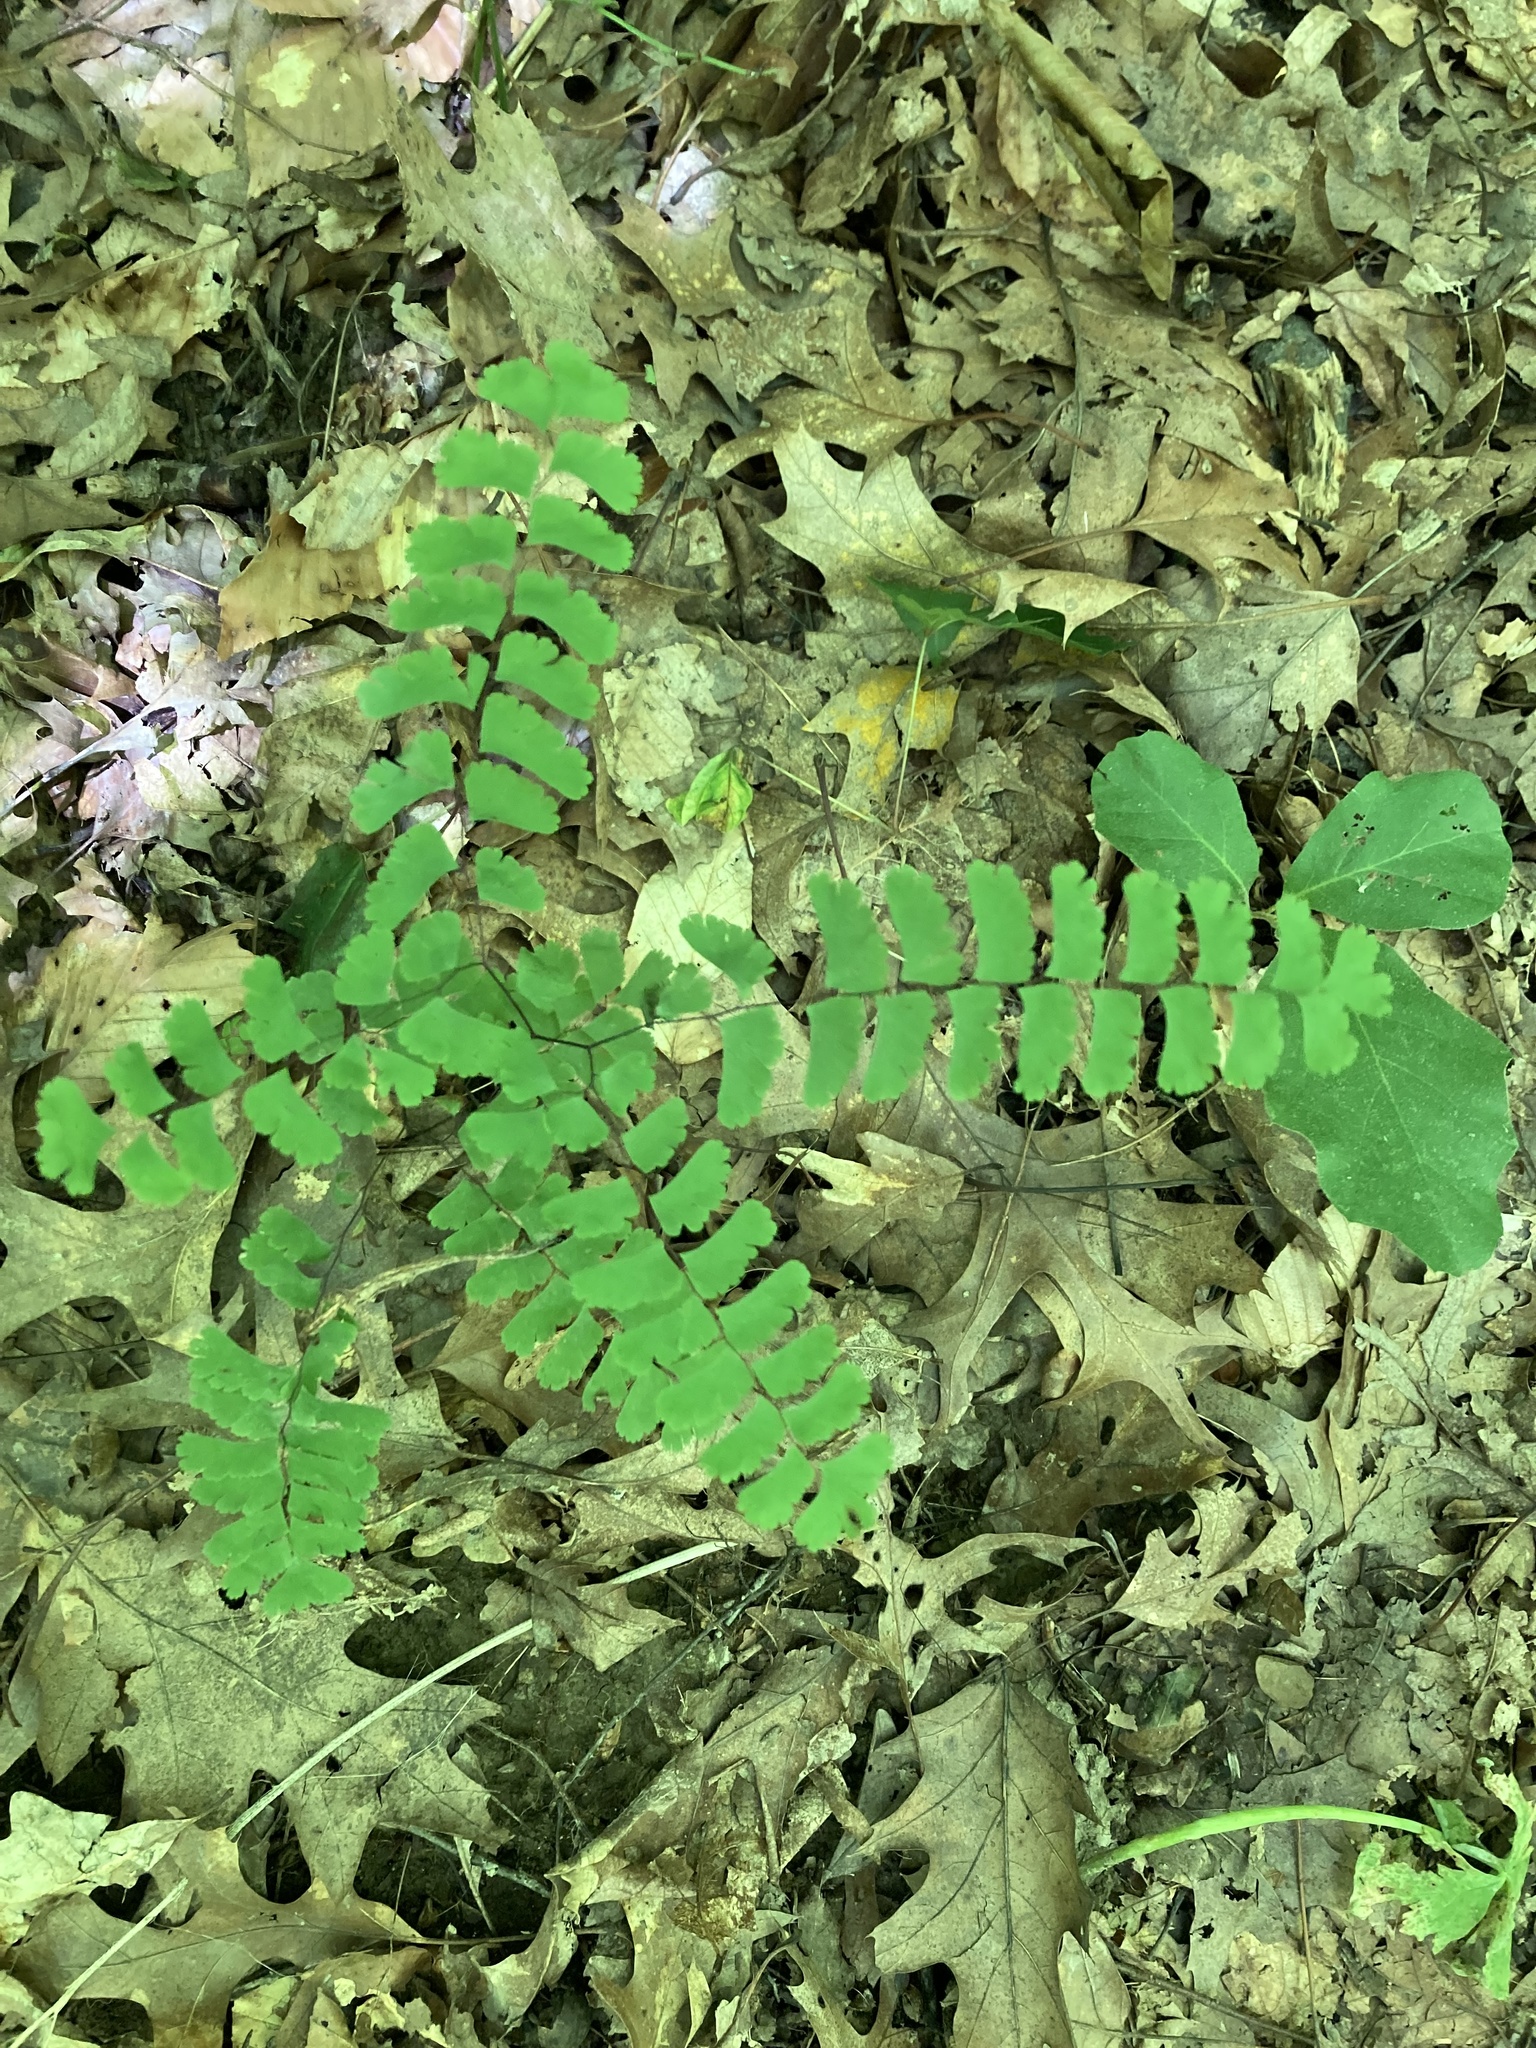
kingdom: Plantae
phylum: Tracheophyta
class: Polypodiopsida
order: Polypodiales
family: Pteridaceae
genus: Adiantum
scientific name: Adiantum pedatum
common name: Five-finger fern
